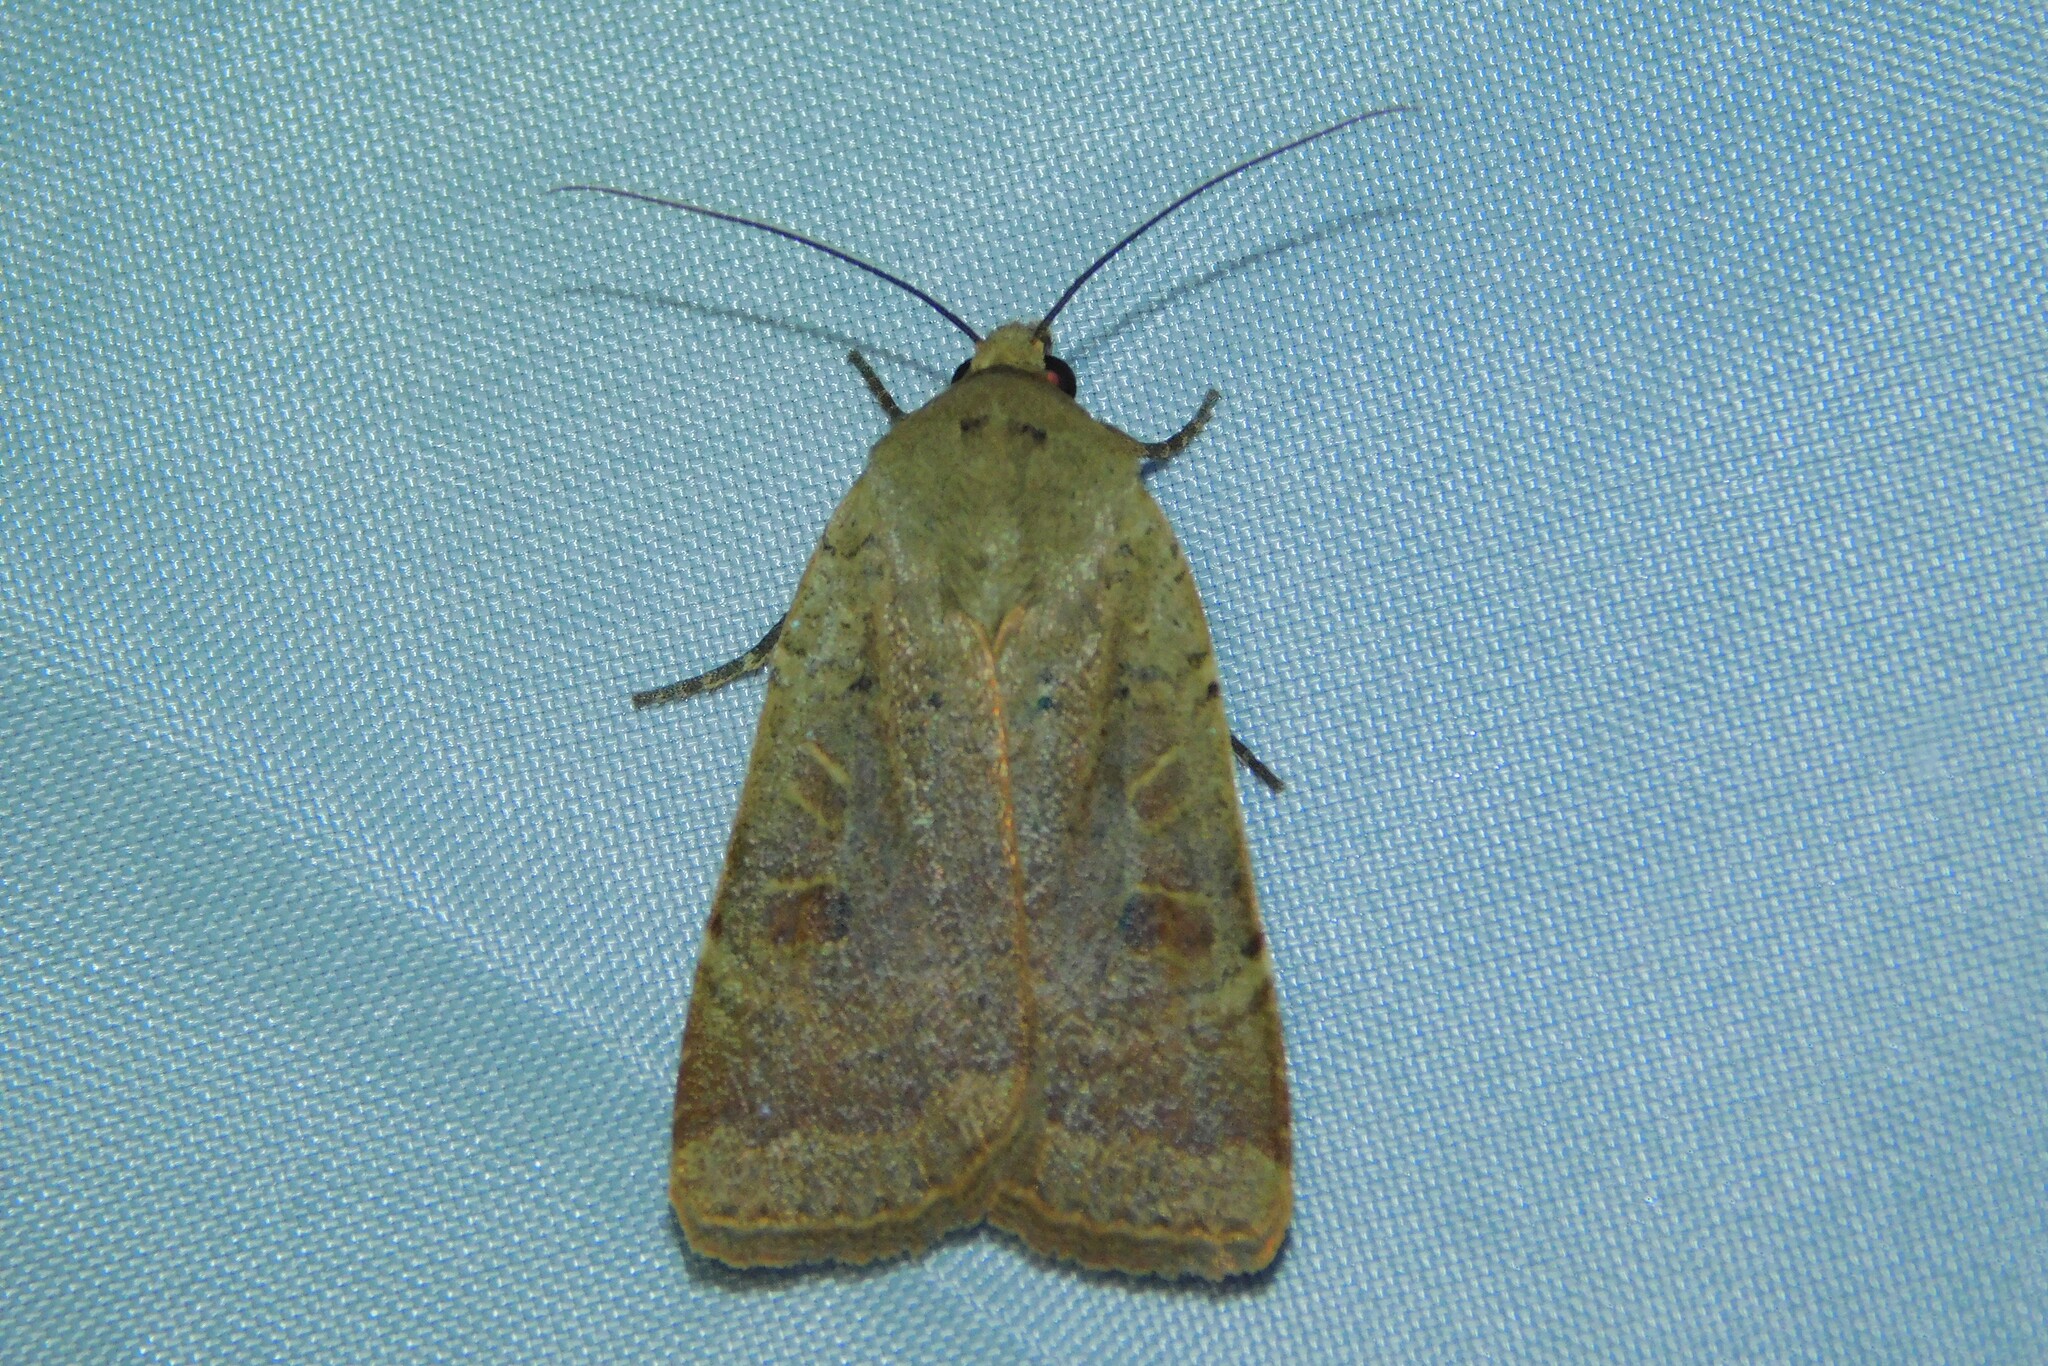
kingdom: Animalia
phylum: Arthropoda
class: Insecta
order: Lepidoptera
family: Noctuidae
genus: Noctua
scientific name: Noctua comes
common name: Lesser yellow underwing
